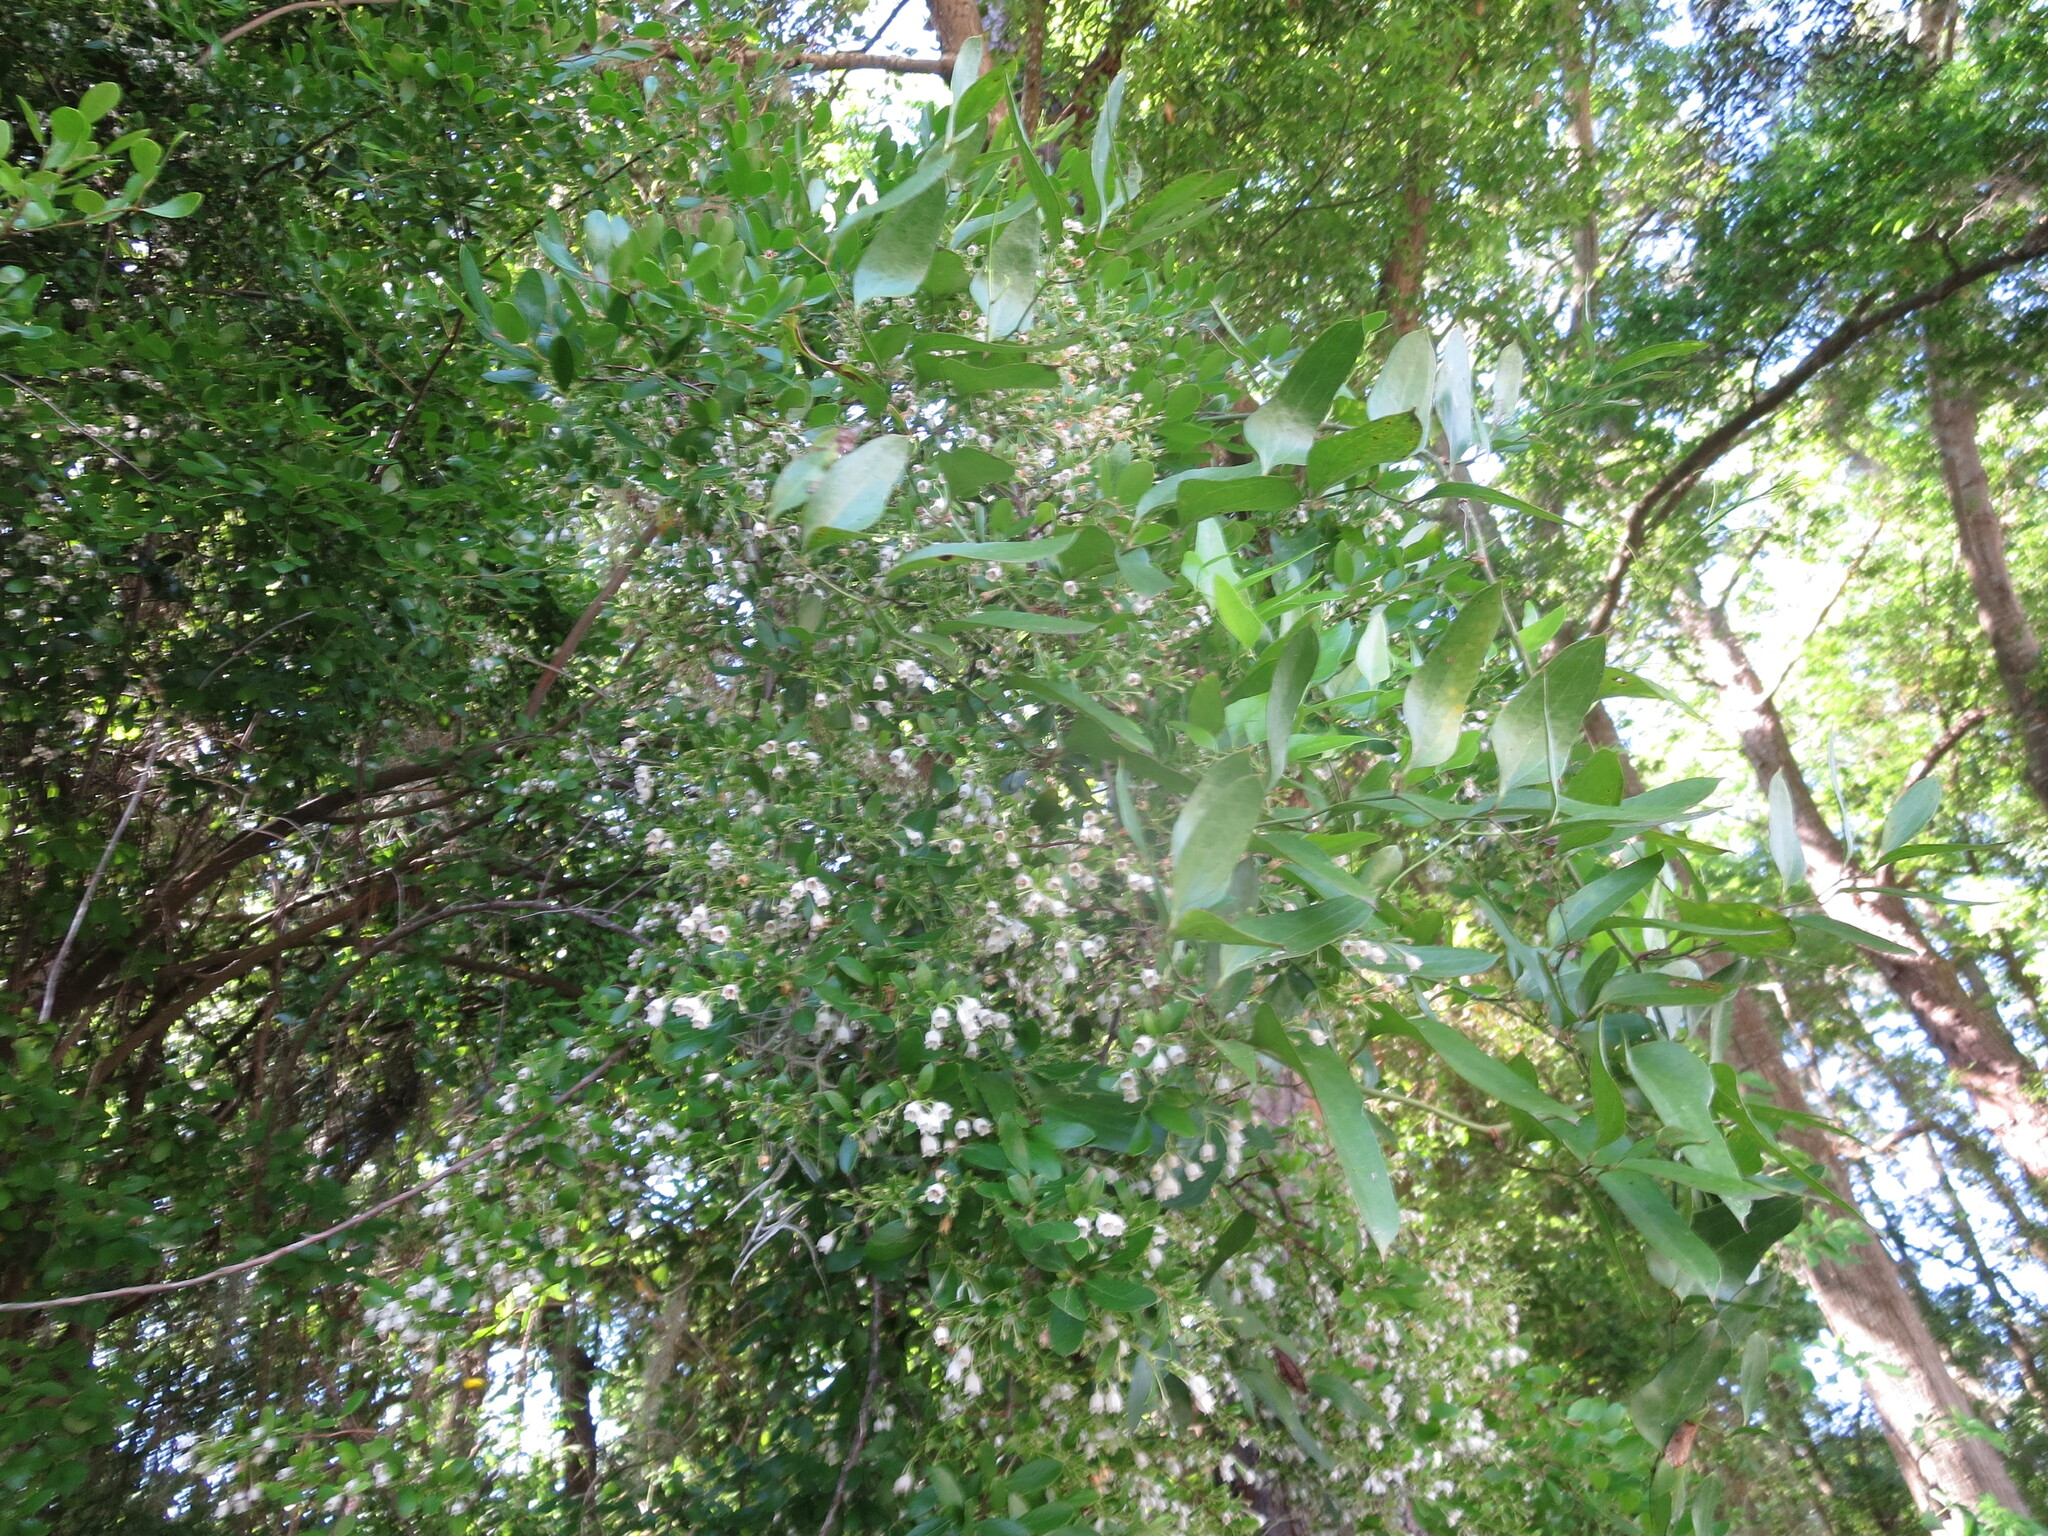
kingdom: Plantae
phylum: Tracheophyta
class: Magnoliopsida
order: Ericales
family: Ericaceae
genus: Vaccinium
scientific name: Vaccinium arboreum
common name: Farkleberry
